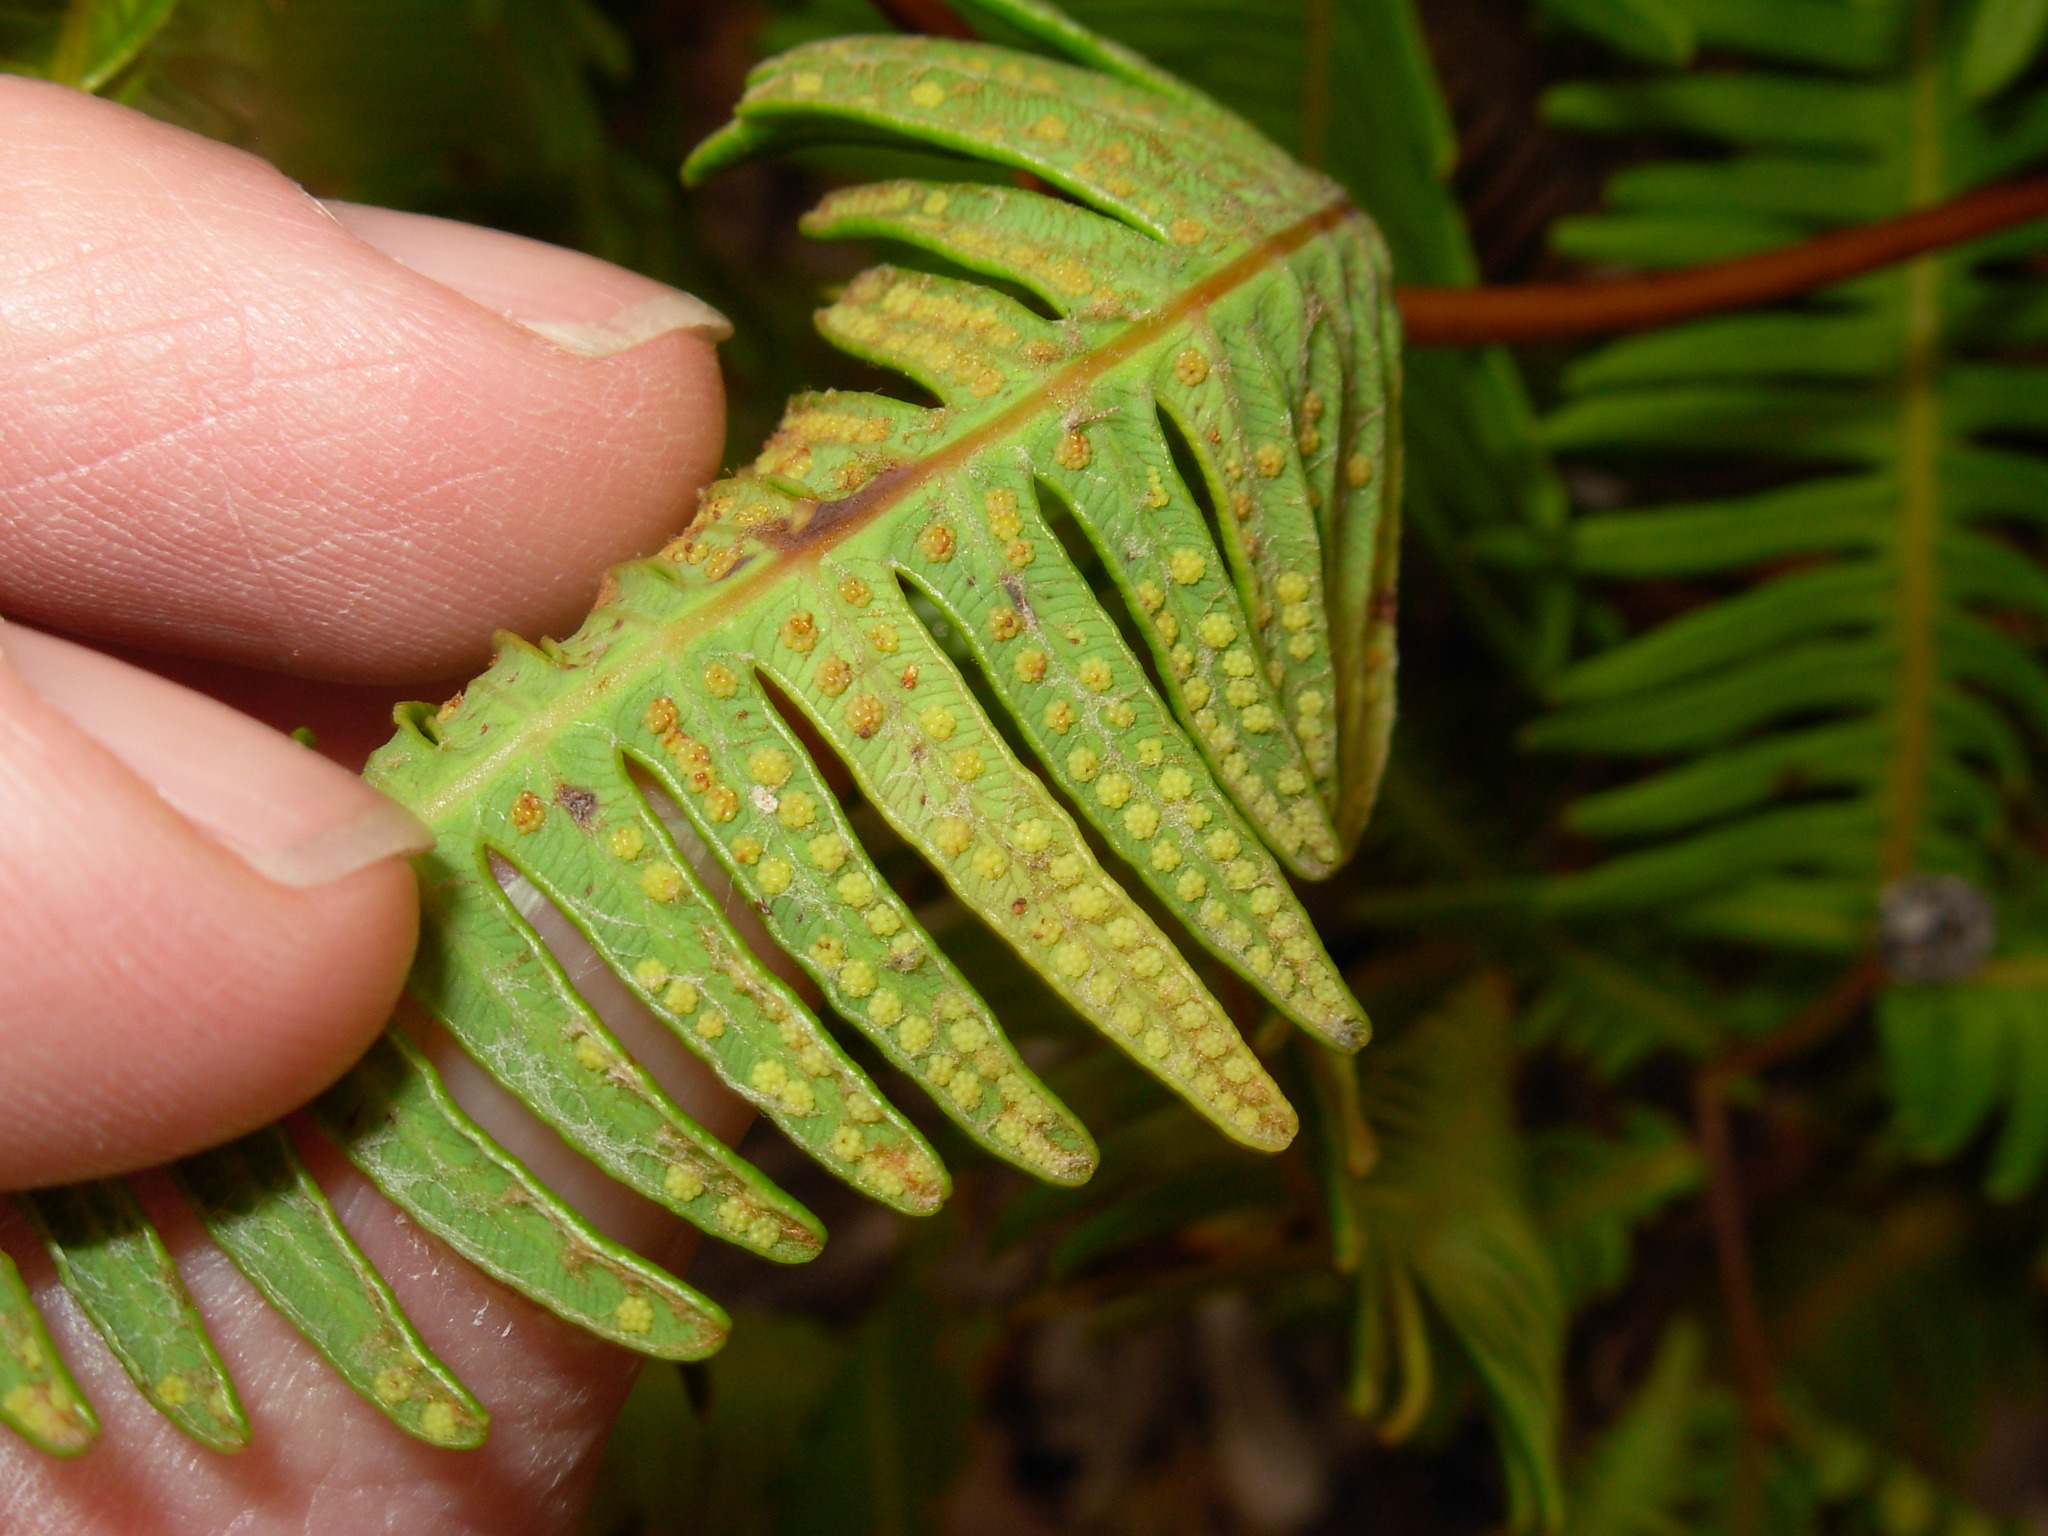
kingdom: Plantae
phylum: Tracheophyta
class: Polypodiopsida
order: Gleicheniales
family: Gleicheniaceae
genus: Dicranopteris
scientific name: Dicranopteris linearis
